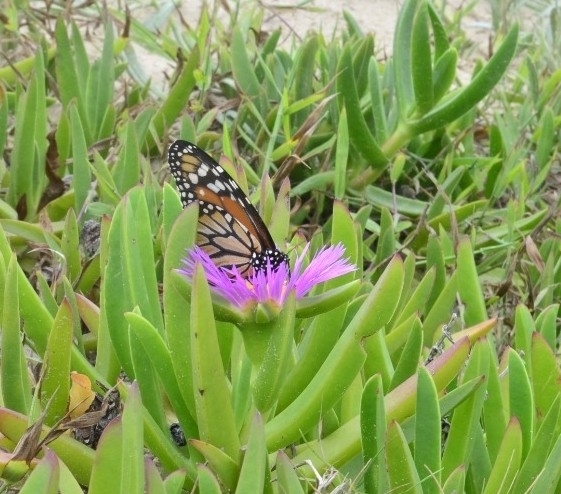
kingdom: Animalia
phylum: Arthropoda
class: Insecta
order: Lepidoptera
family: Nymphalidae
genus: Danaus
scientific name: Danaus erippus
